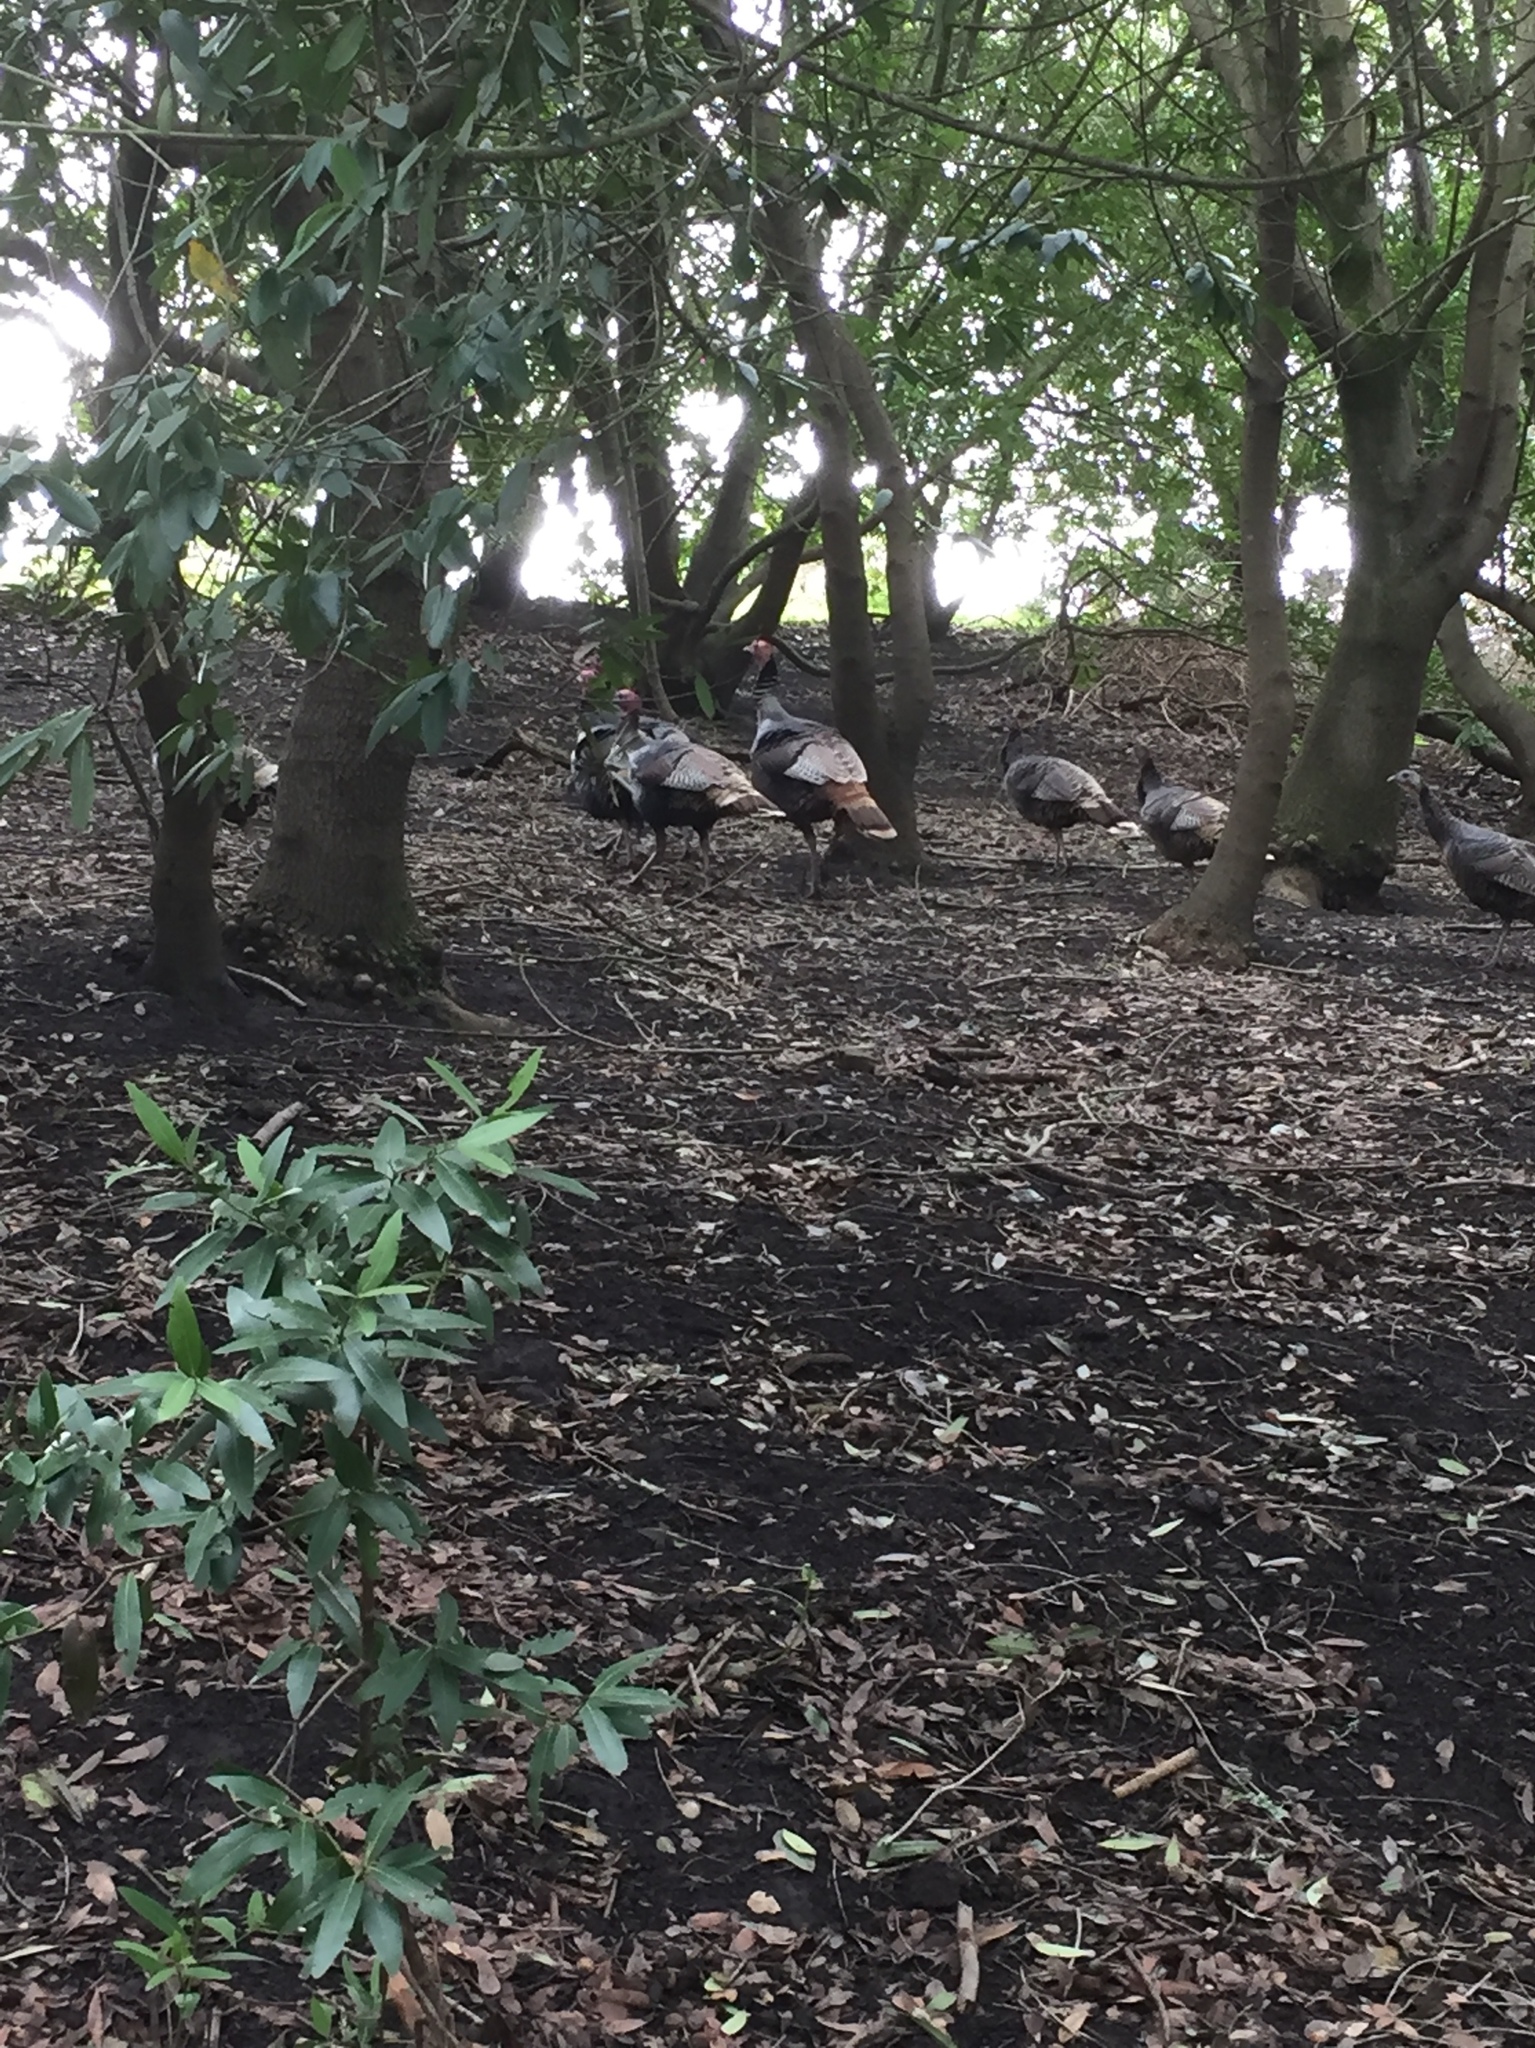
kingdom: Animalia
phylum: Chordata
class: Aves
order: Galliformes
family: Phasianidae
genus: Meleagris
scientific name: Meleagris gallopavo
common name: Wild turkey
